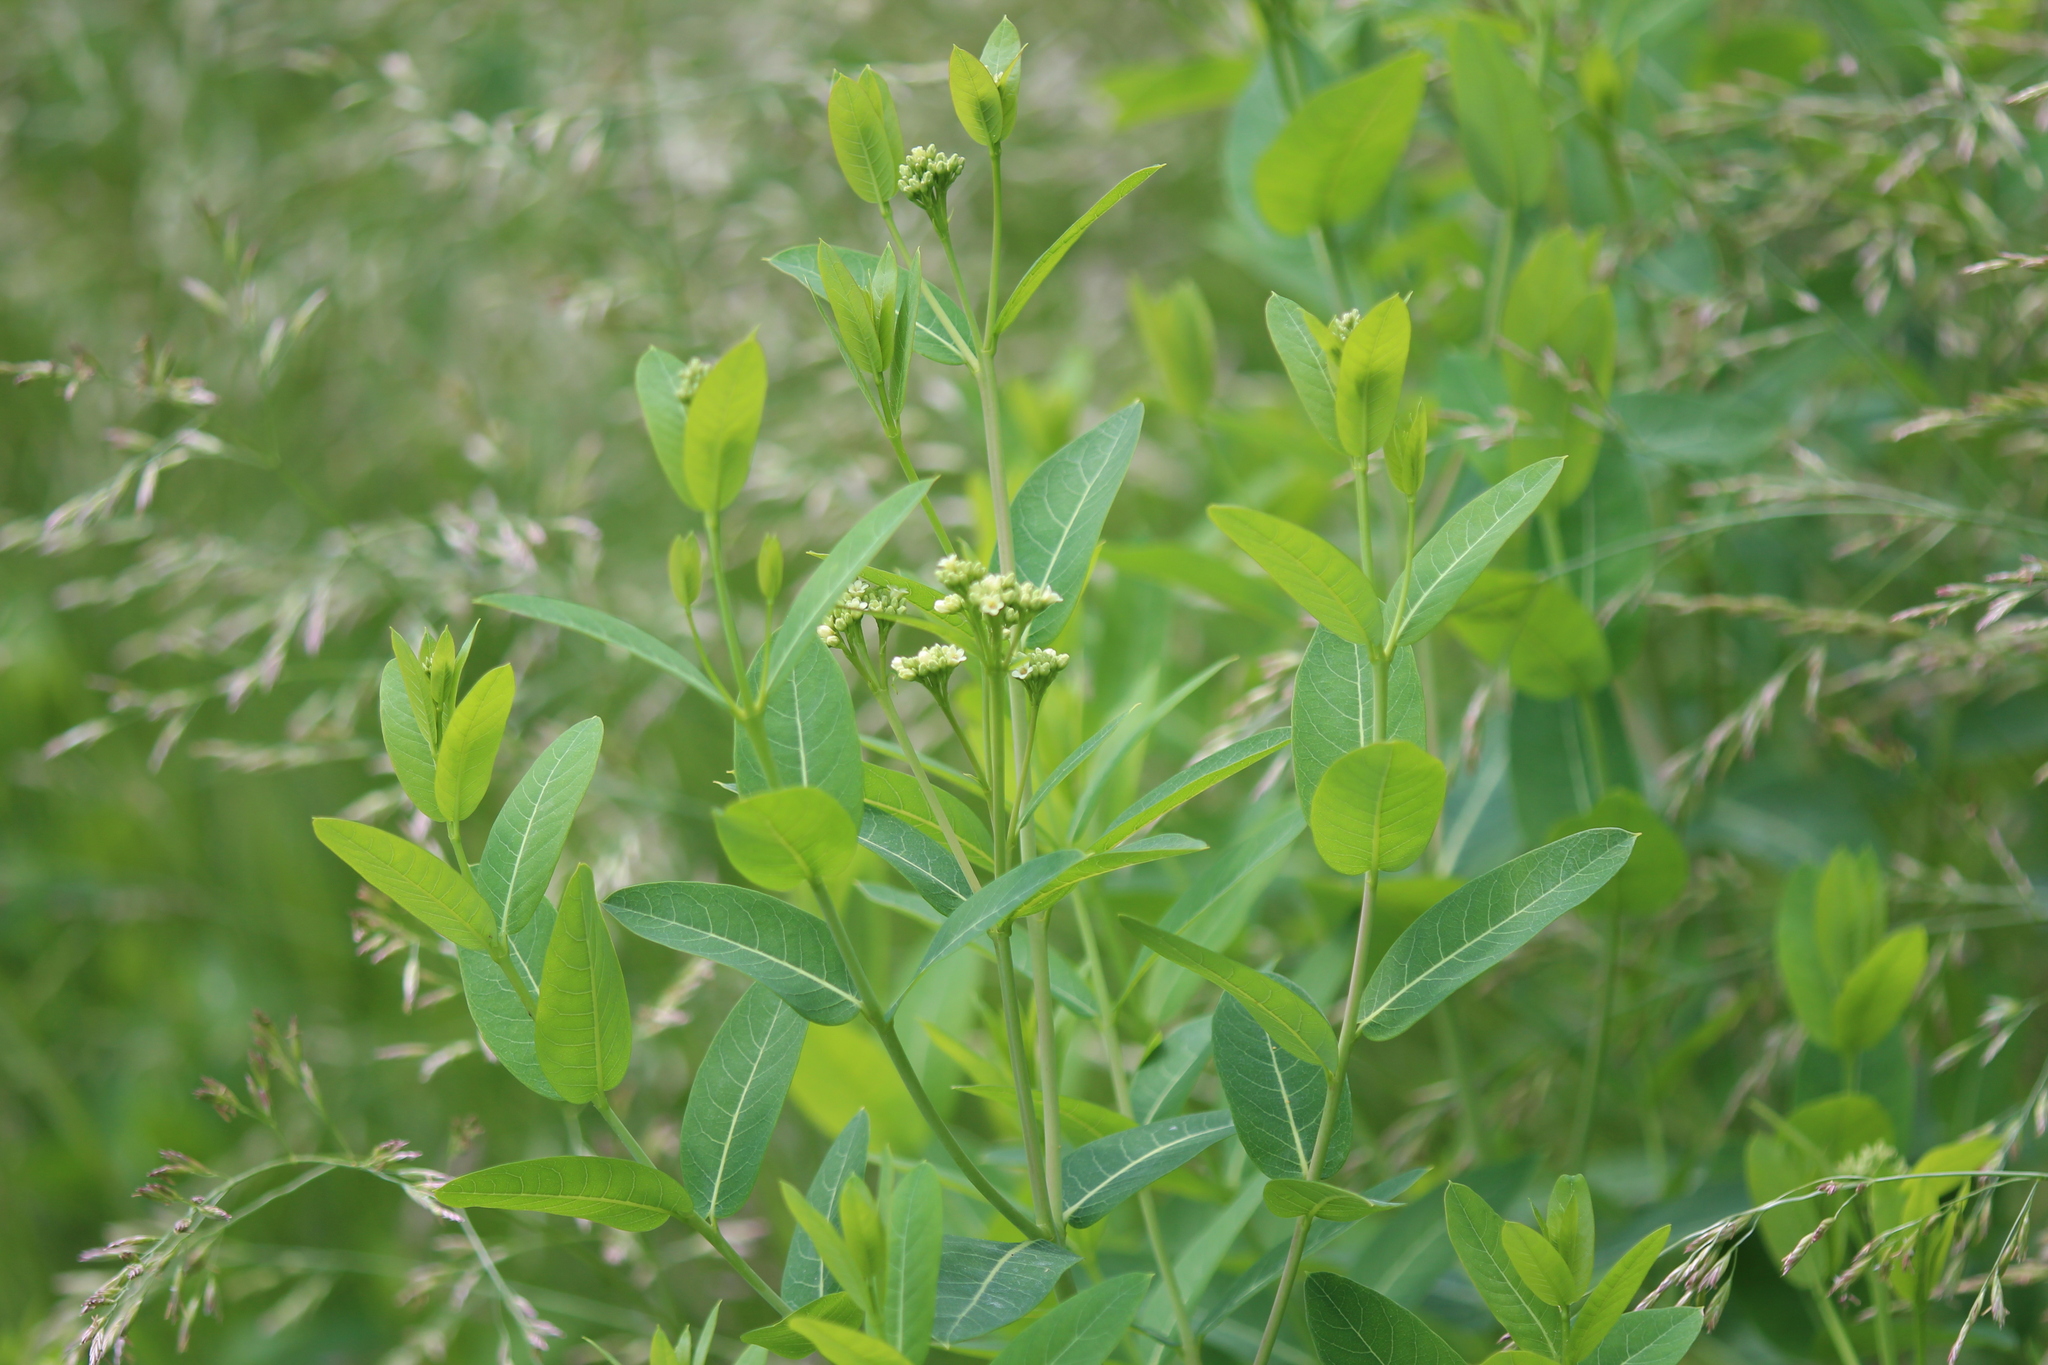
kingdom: Plantae
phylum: Tracheophyta
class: Magnoliopsida
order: Gentianales
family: Apocynaceae
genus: Apocynum
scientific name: Apocynum cannabinum
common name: Hemp dogbane
